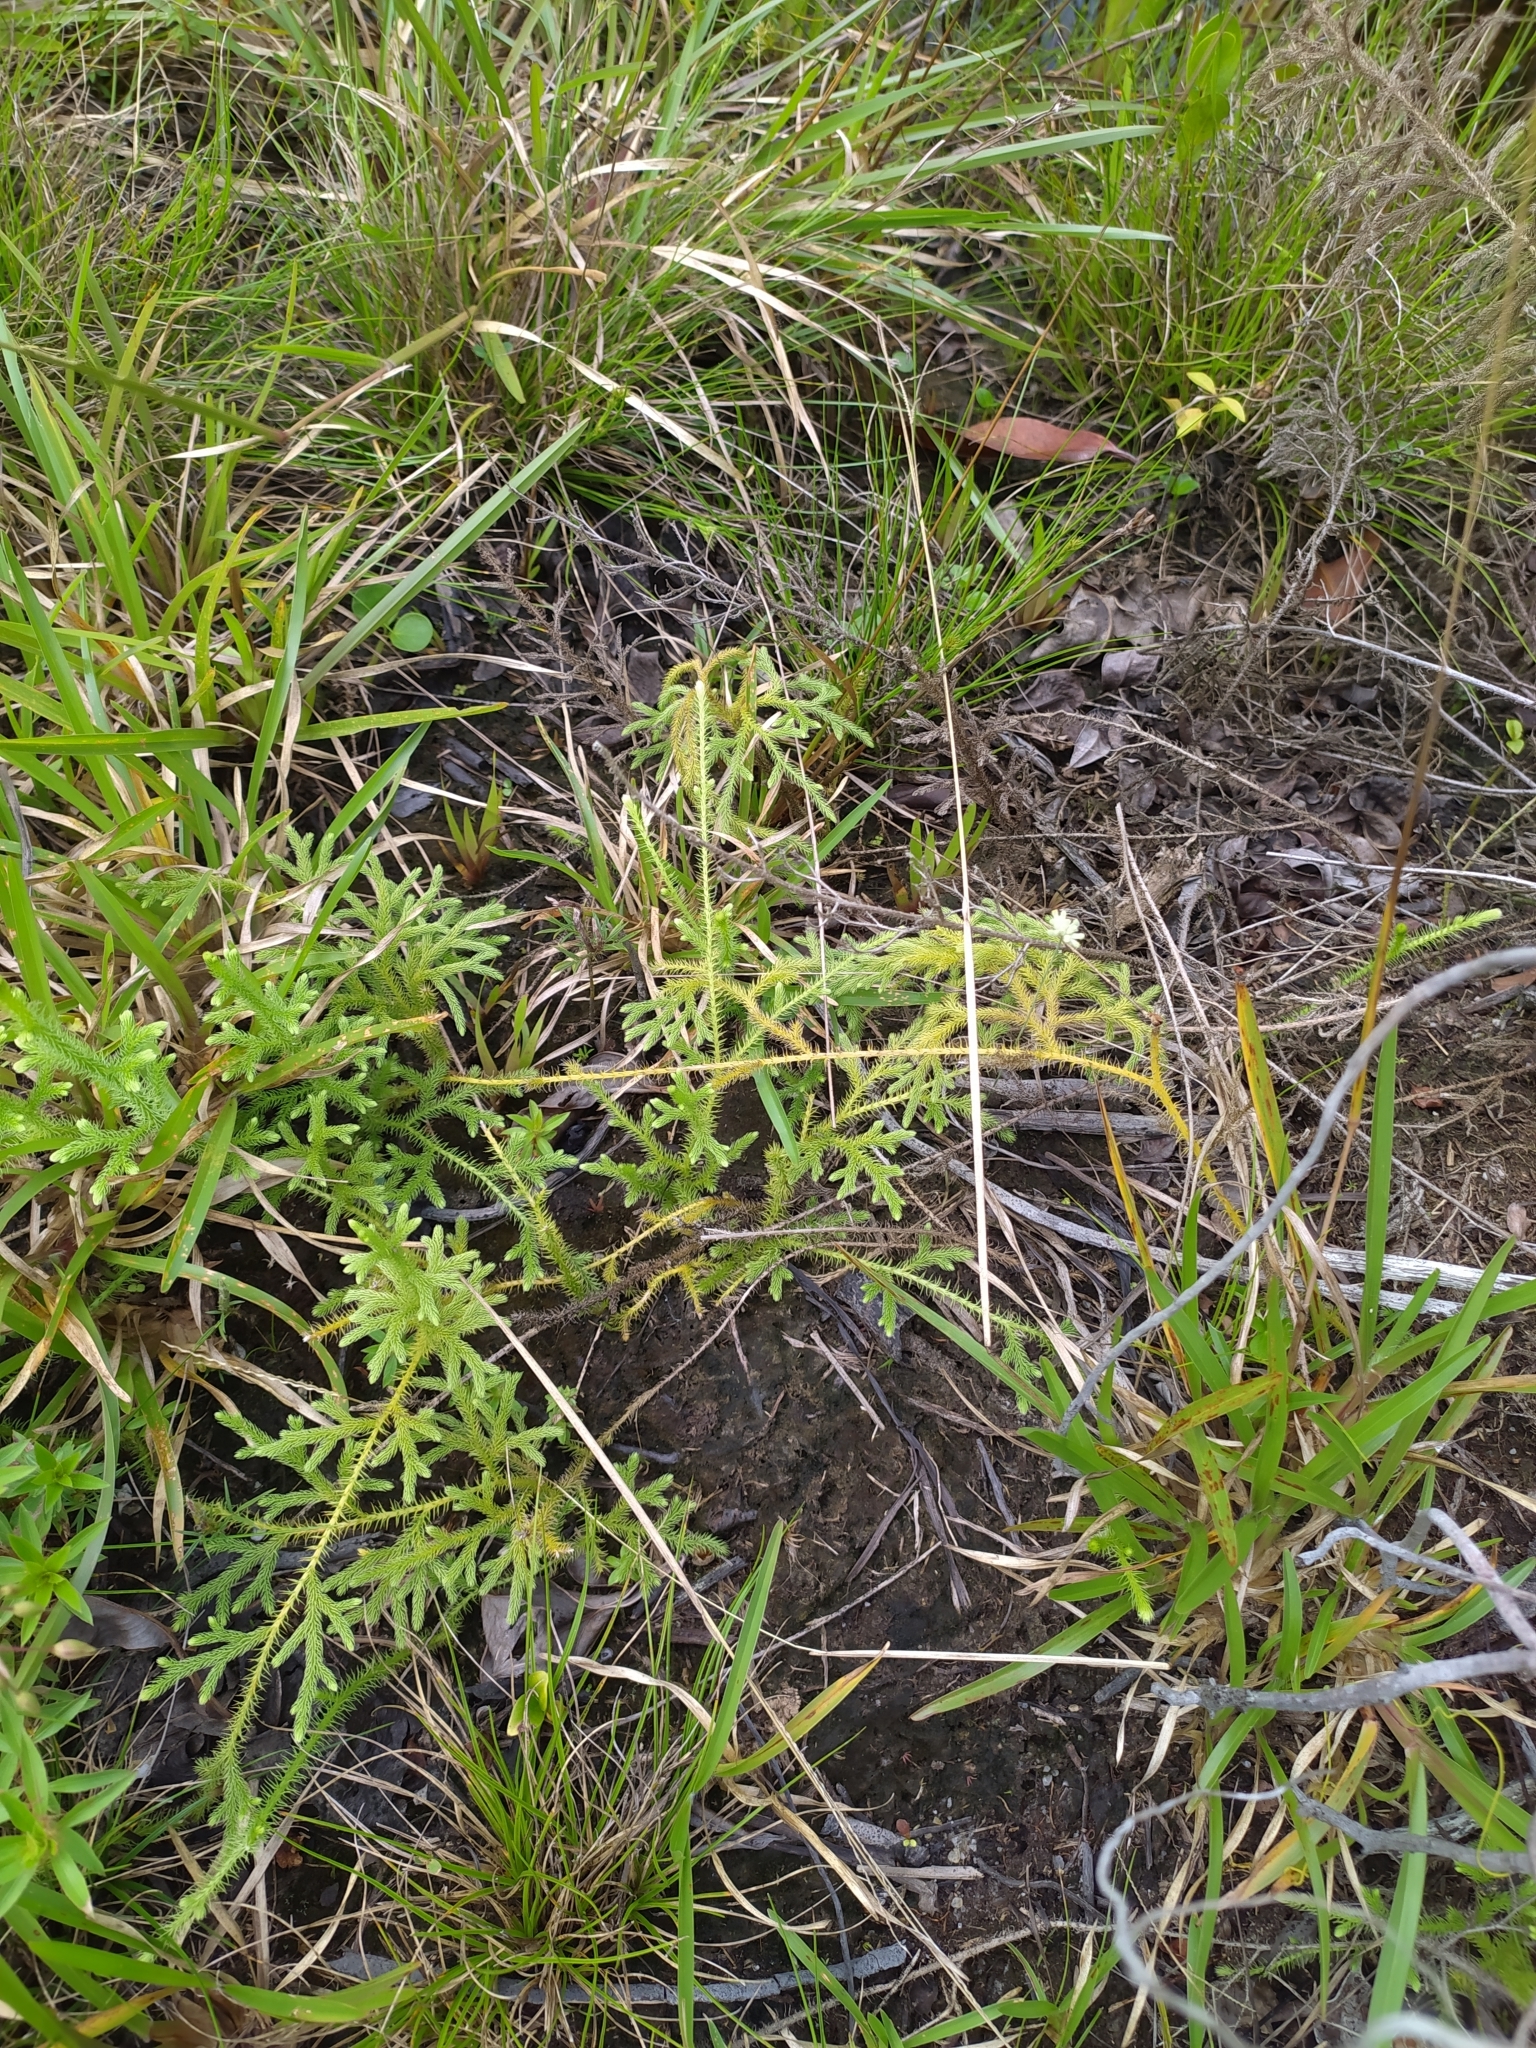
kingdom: Plantae
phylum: Tracheophyta
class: Lycopodiopsida
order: Lycopodiales
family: Lycopodiaceae
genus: Palhinhaea
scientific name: Palhinhaea cernua
